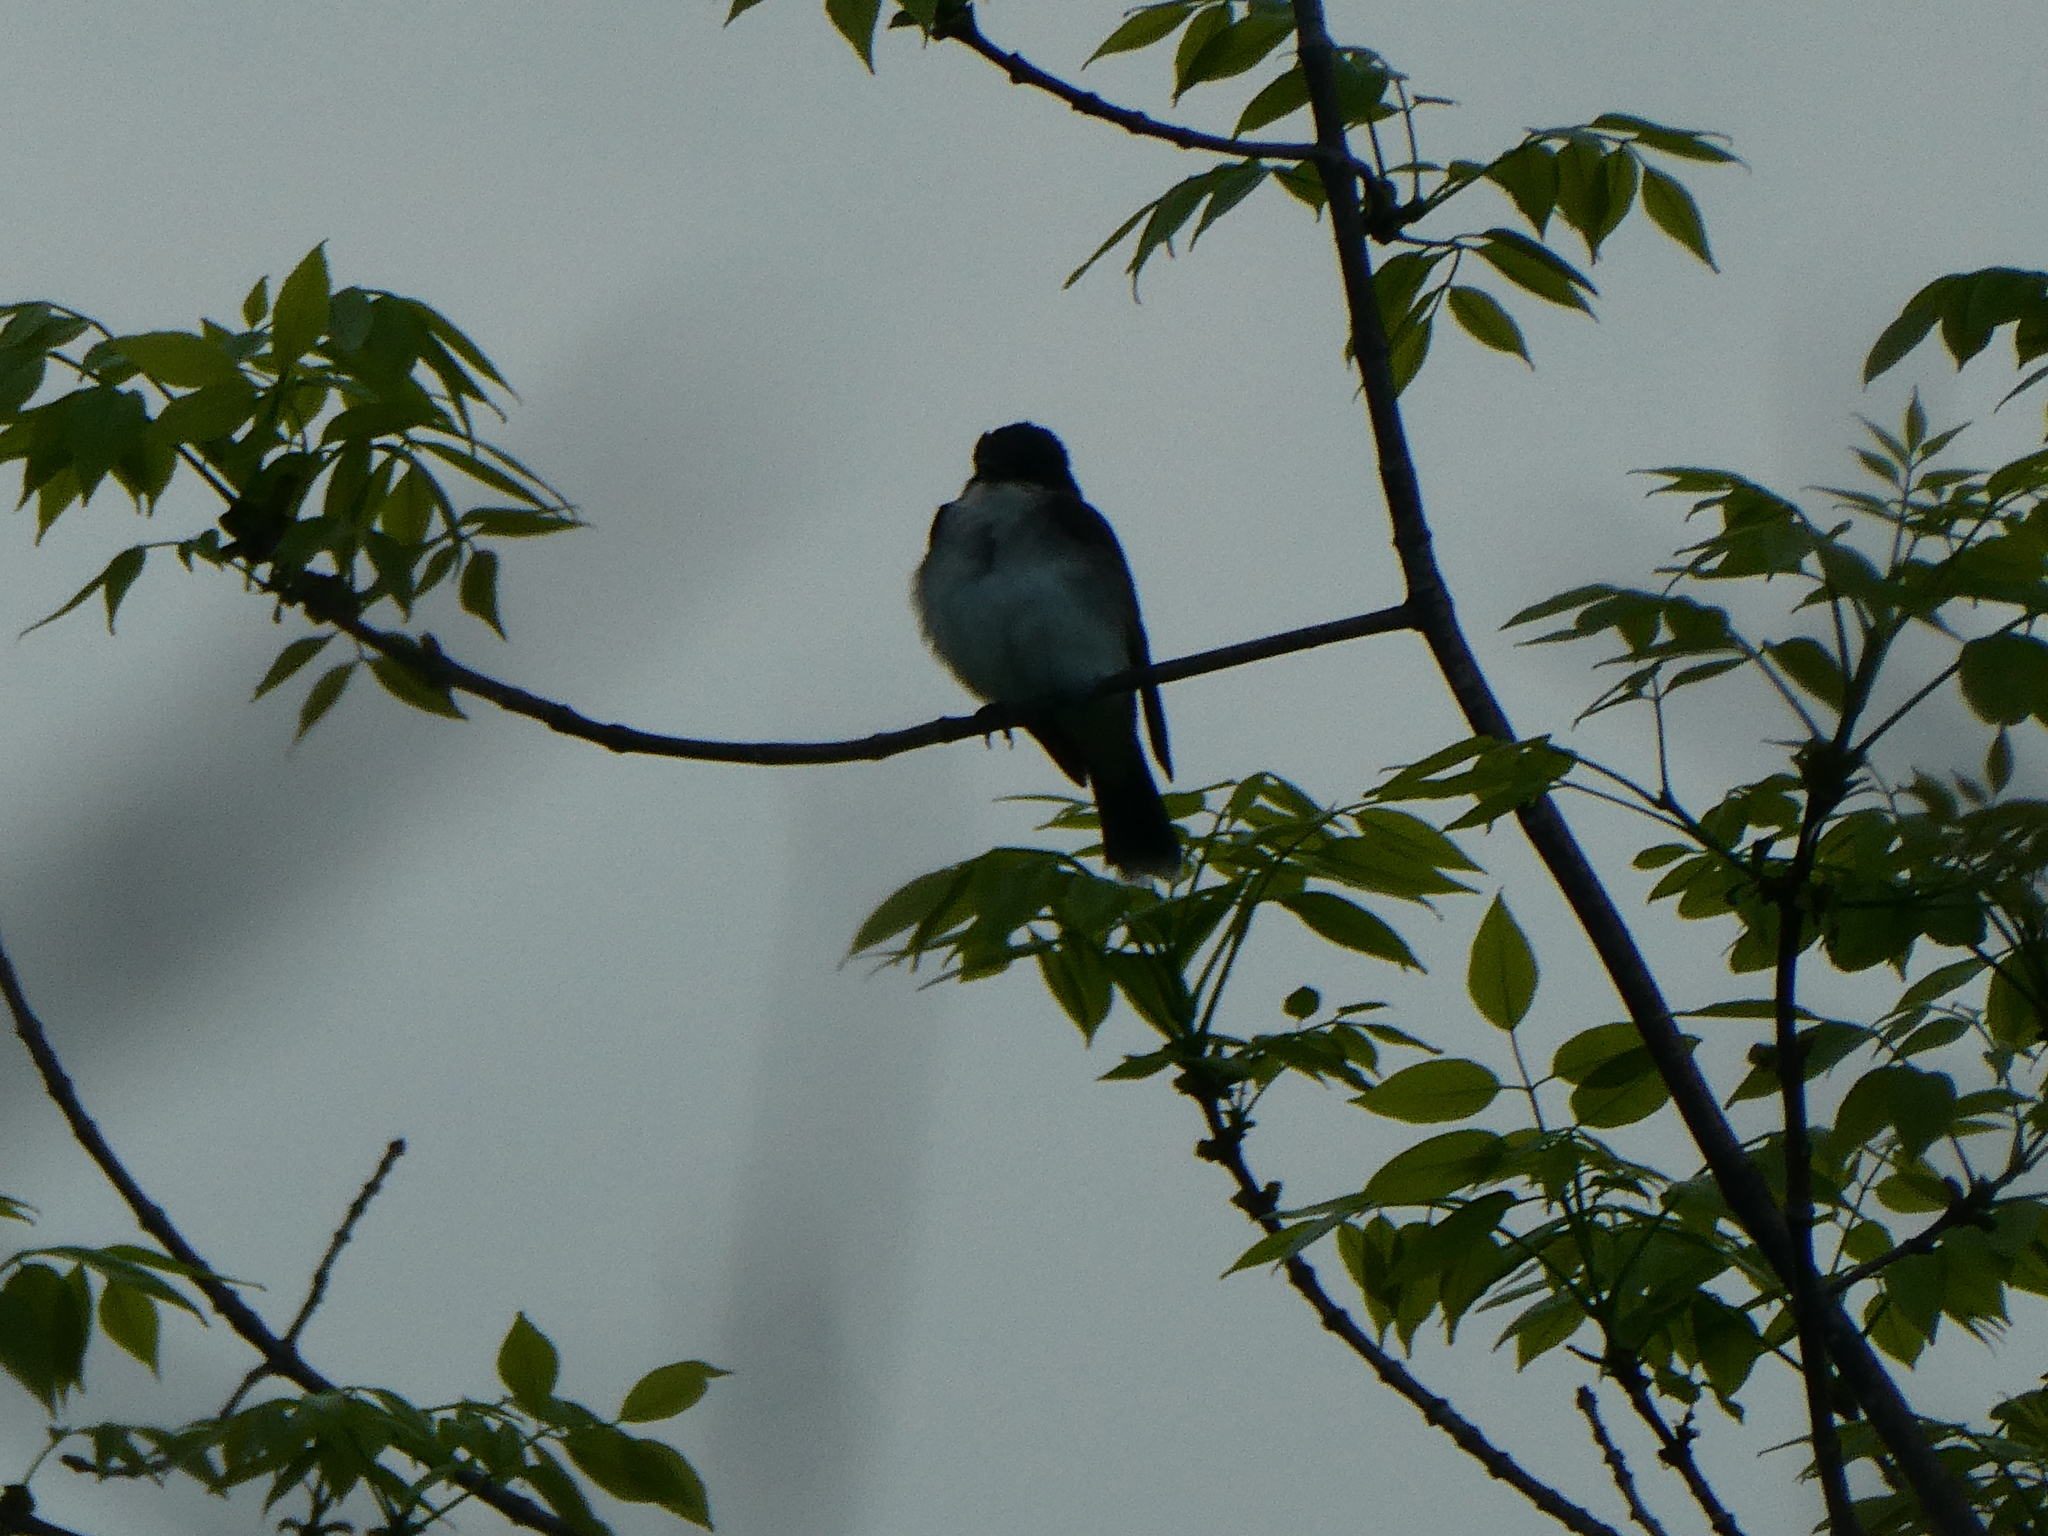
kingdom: Animalia
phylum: Chordata
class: Aves
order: Passeriformes
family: Tyrannidae
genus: Tyrannus
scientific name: Tyrannus tyrannus
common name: Eastern kingbird
